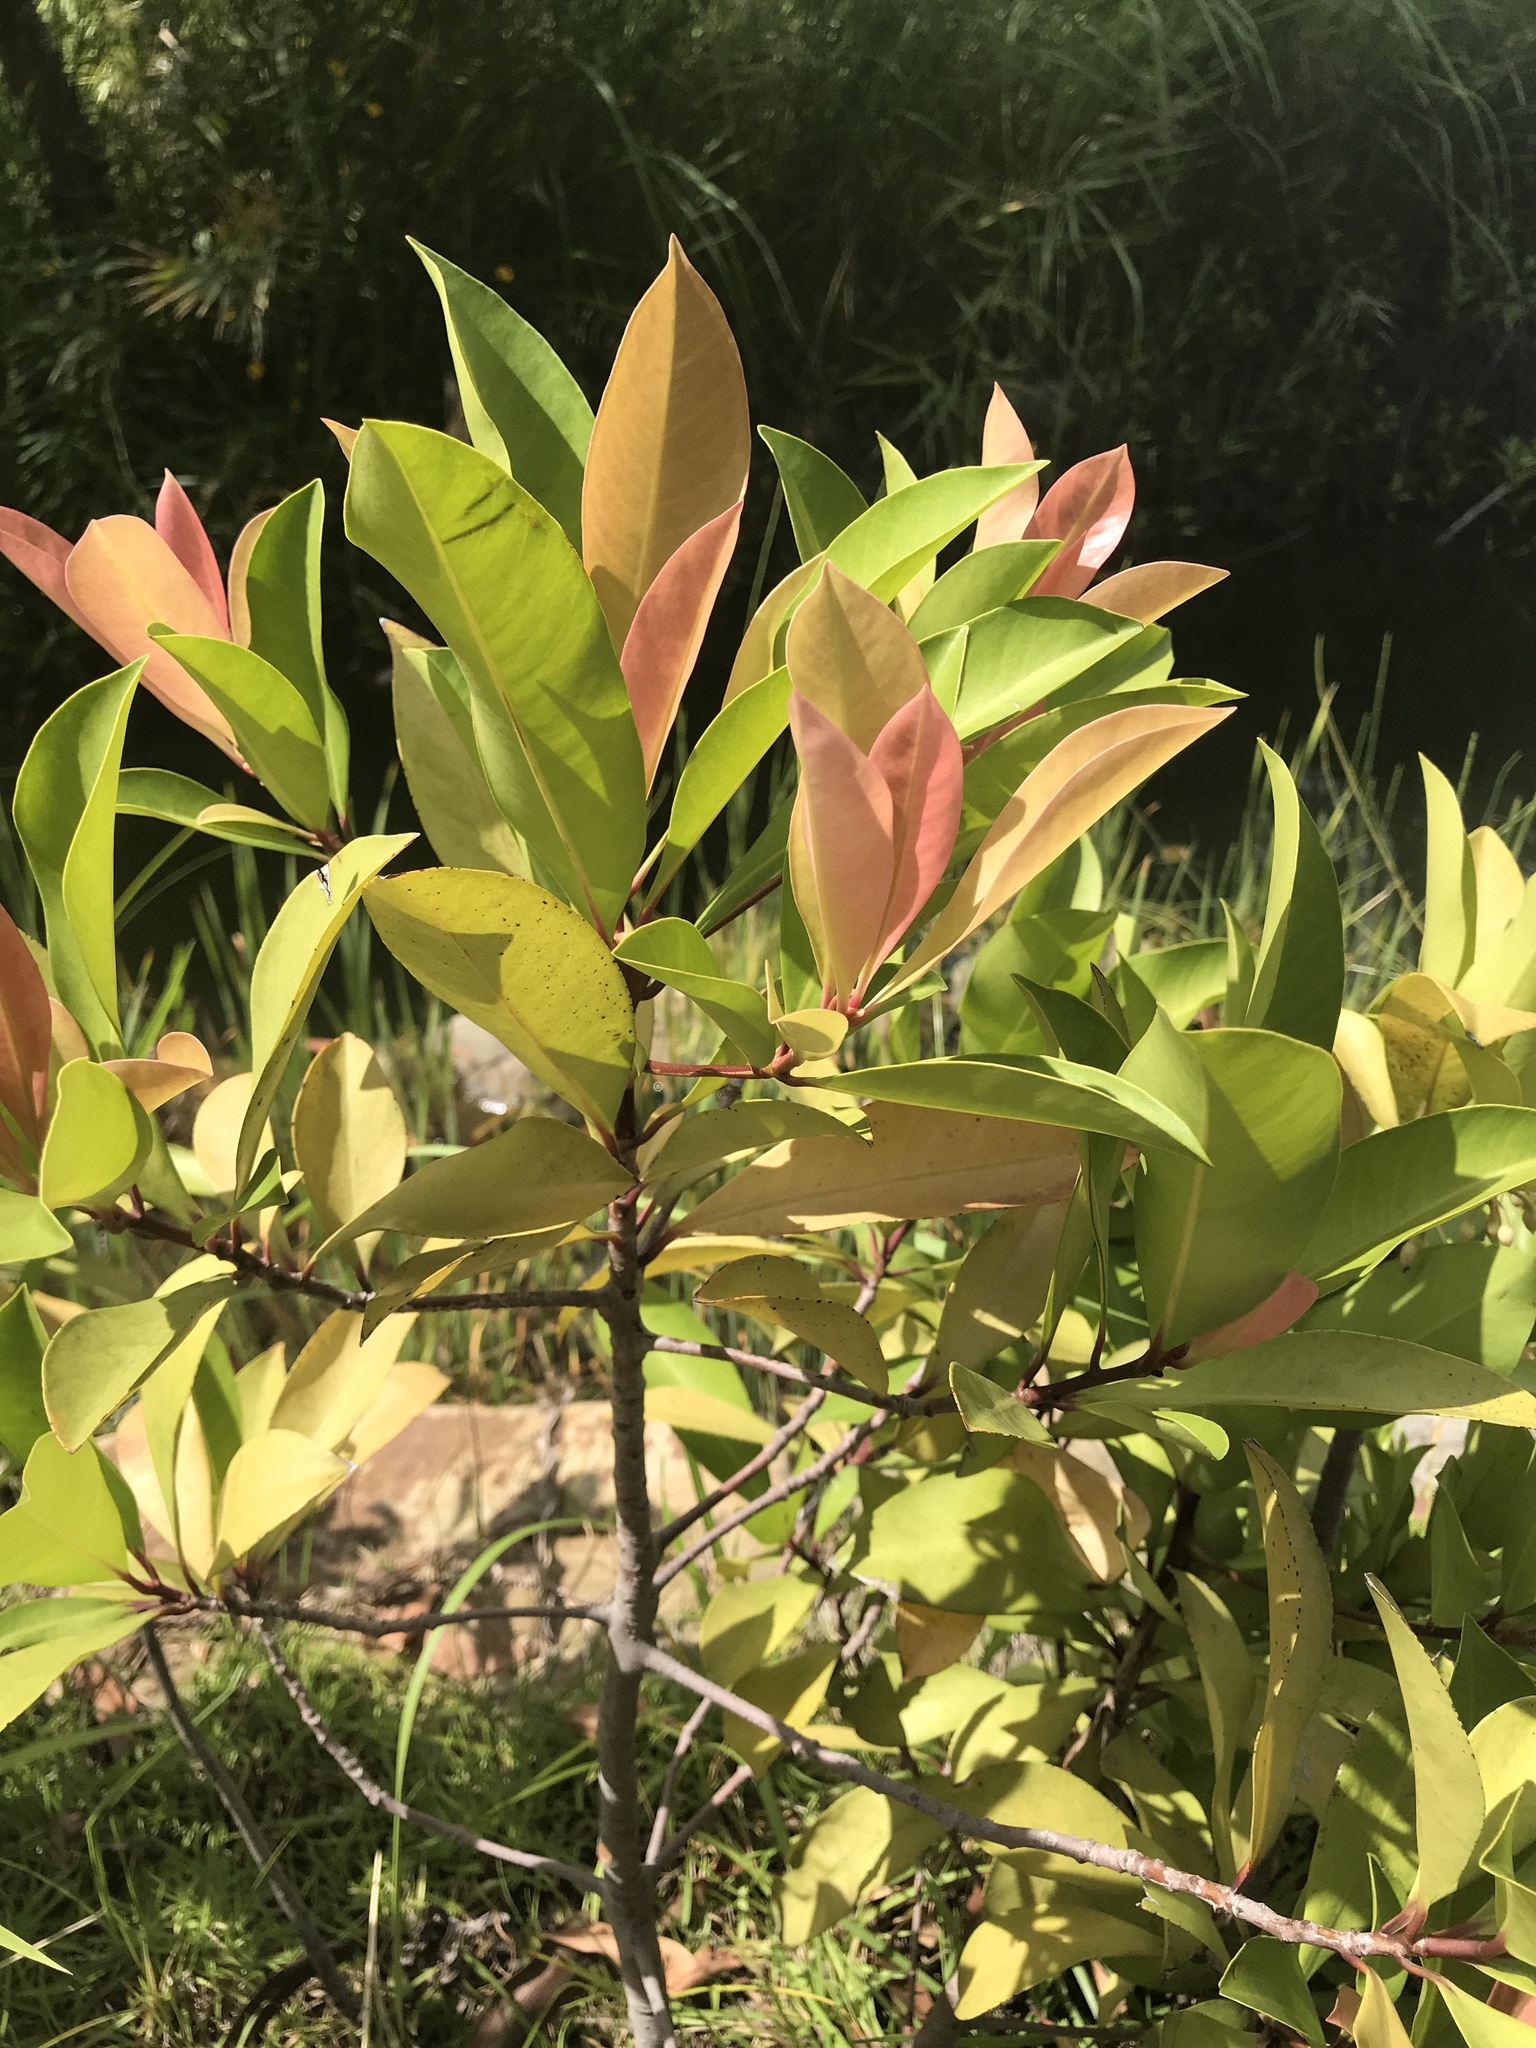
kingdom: Plantae
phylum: Tracheophyta
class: Magnoliopsida
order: Ericales
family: Primulaceae
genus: Ardisia
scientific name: Ardisia elliptica
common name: Shoebutton
